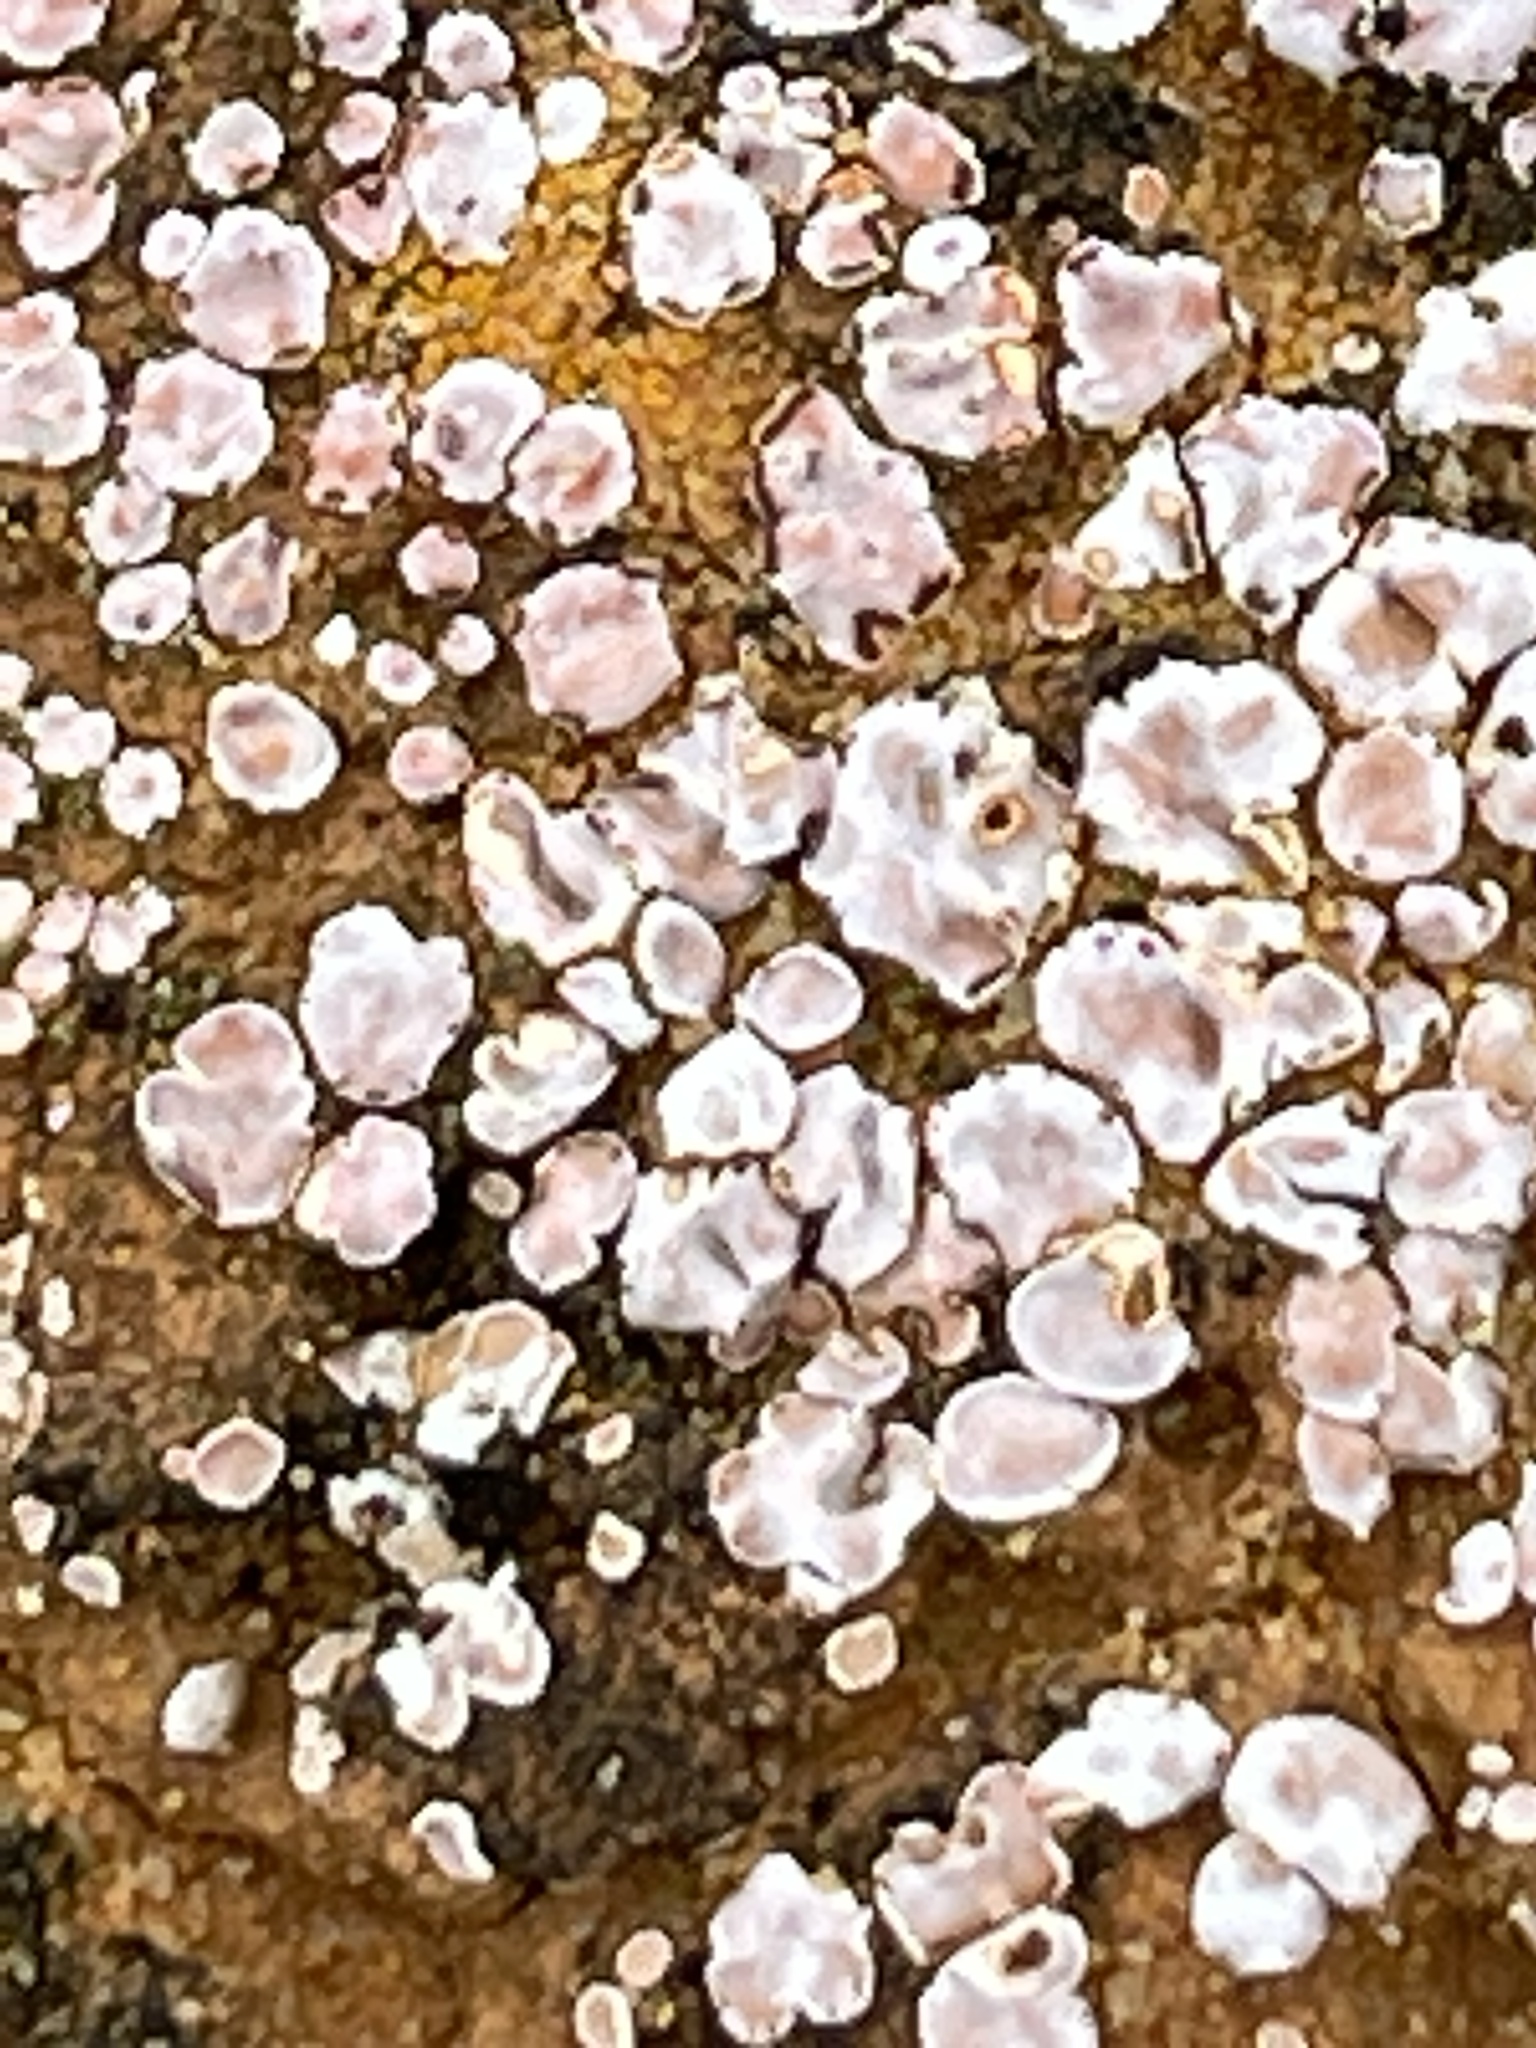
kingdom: Fungi
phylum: Ascomycota
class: Lecanoromycetes
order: Lecanorales
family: Psoraceae
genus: Psora
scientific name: Psora decipiens
